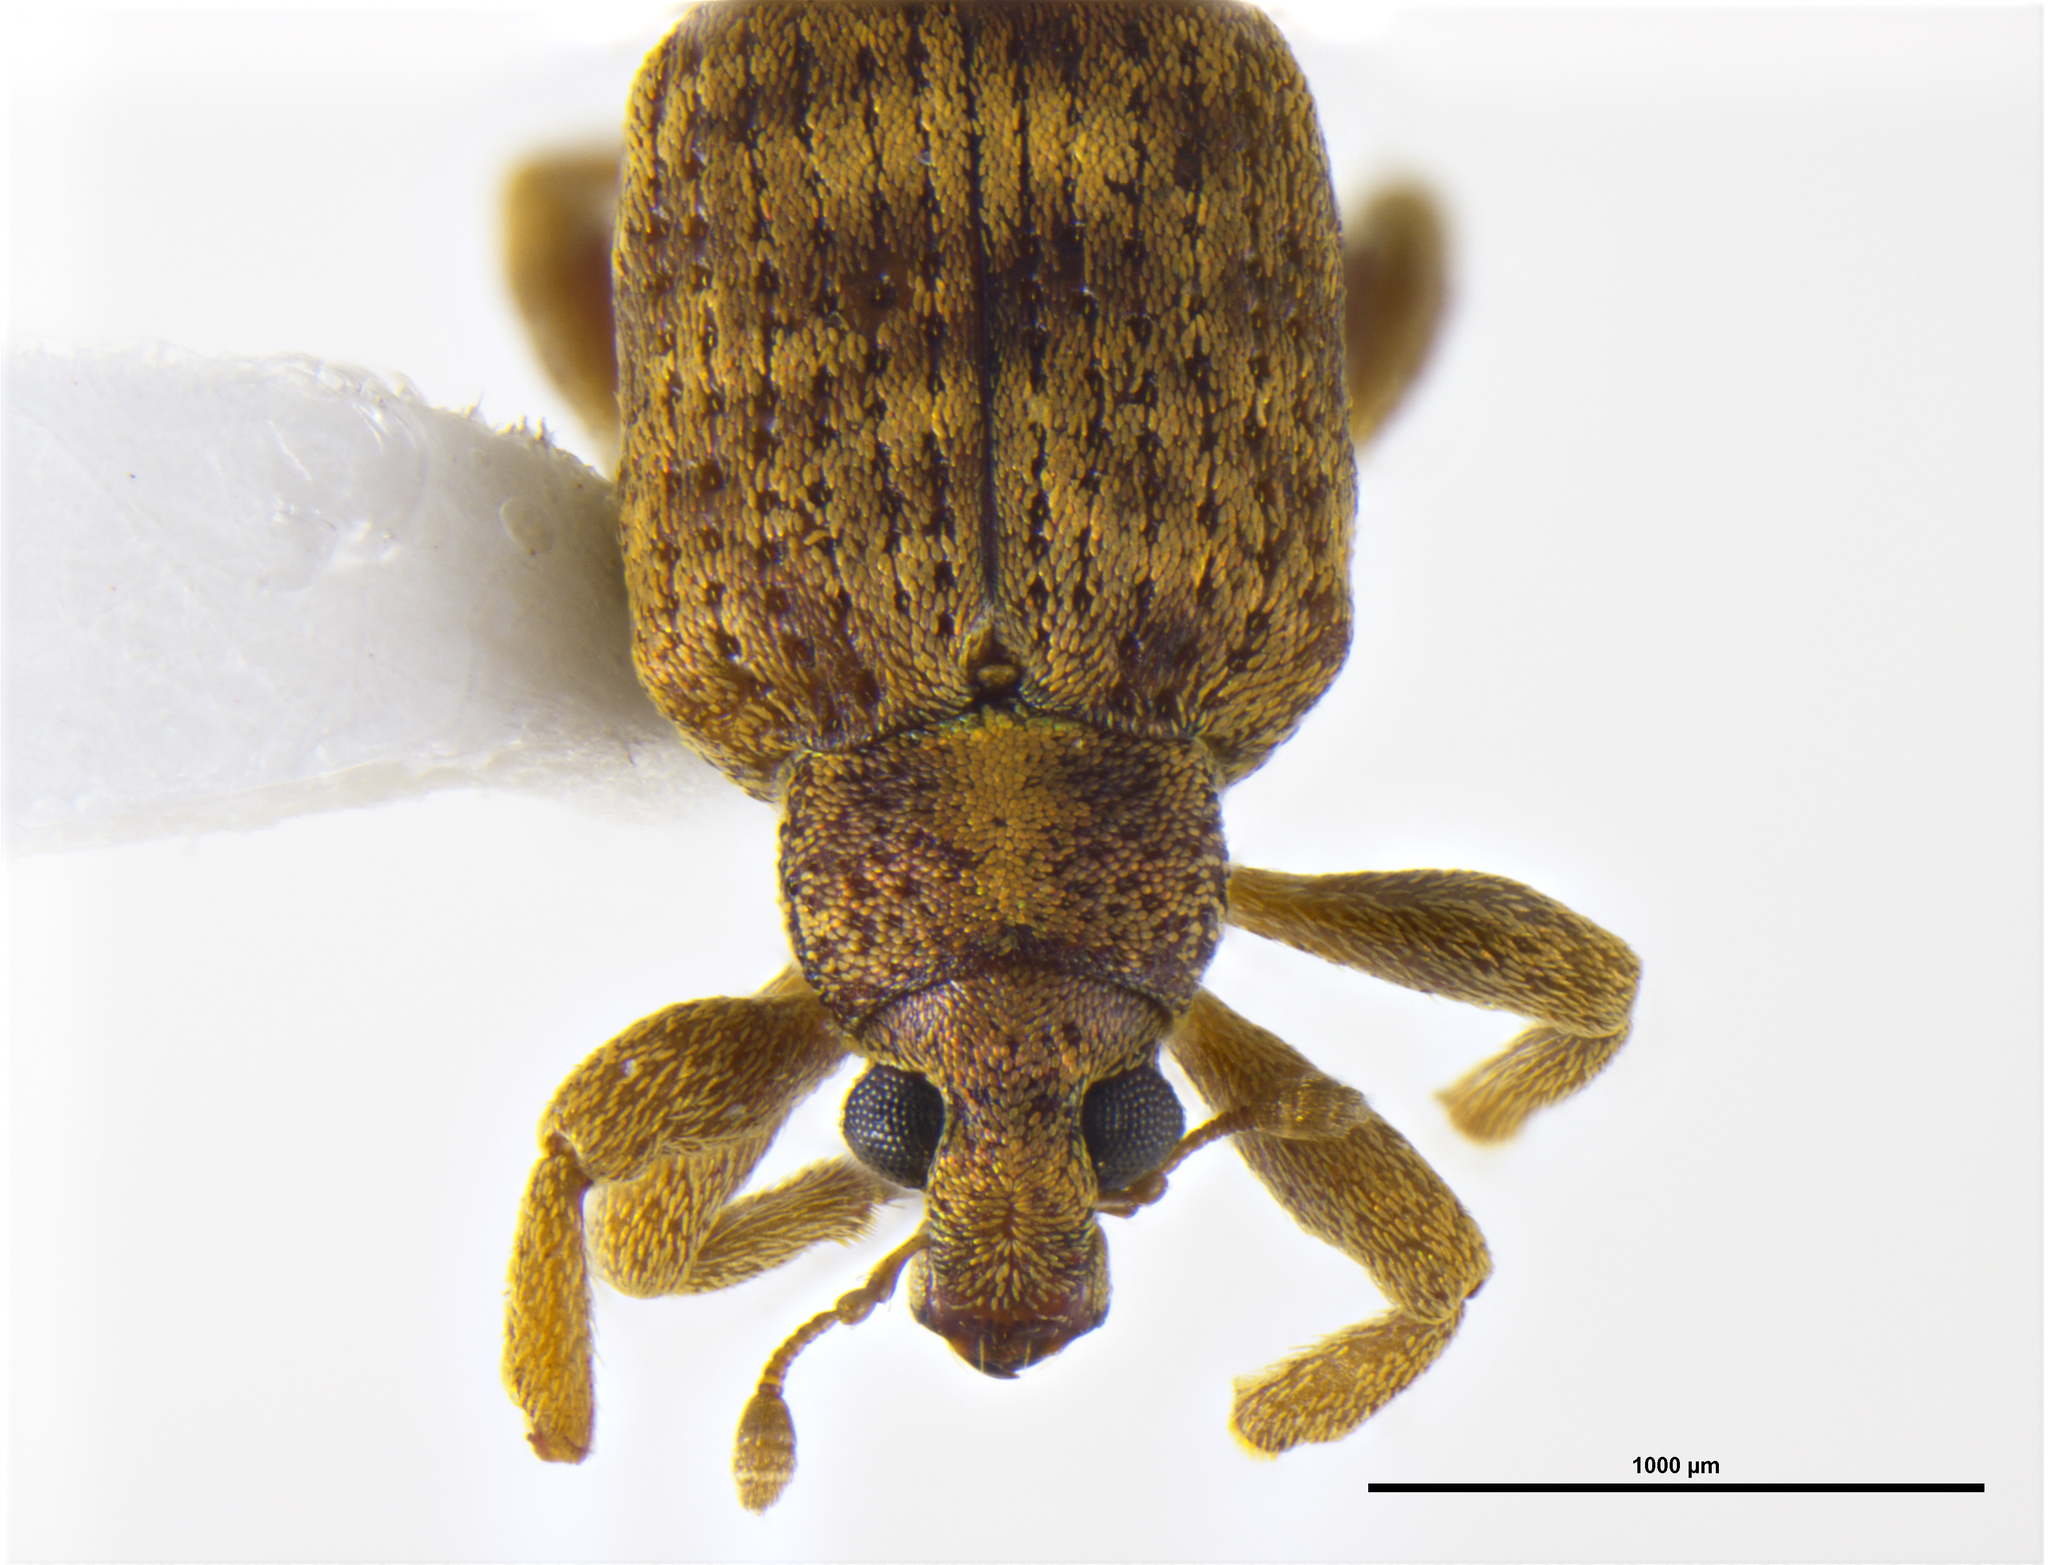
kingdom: Animalia
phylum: Arthropoda
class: Insecta
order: Coleoptera
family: Curculionidae
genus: Samoacis
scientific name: Samoacis planatus
